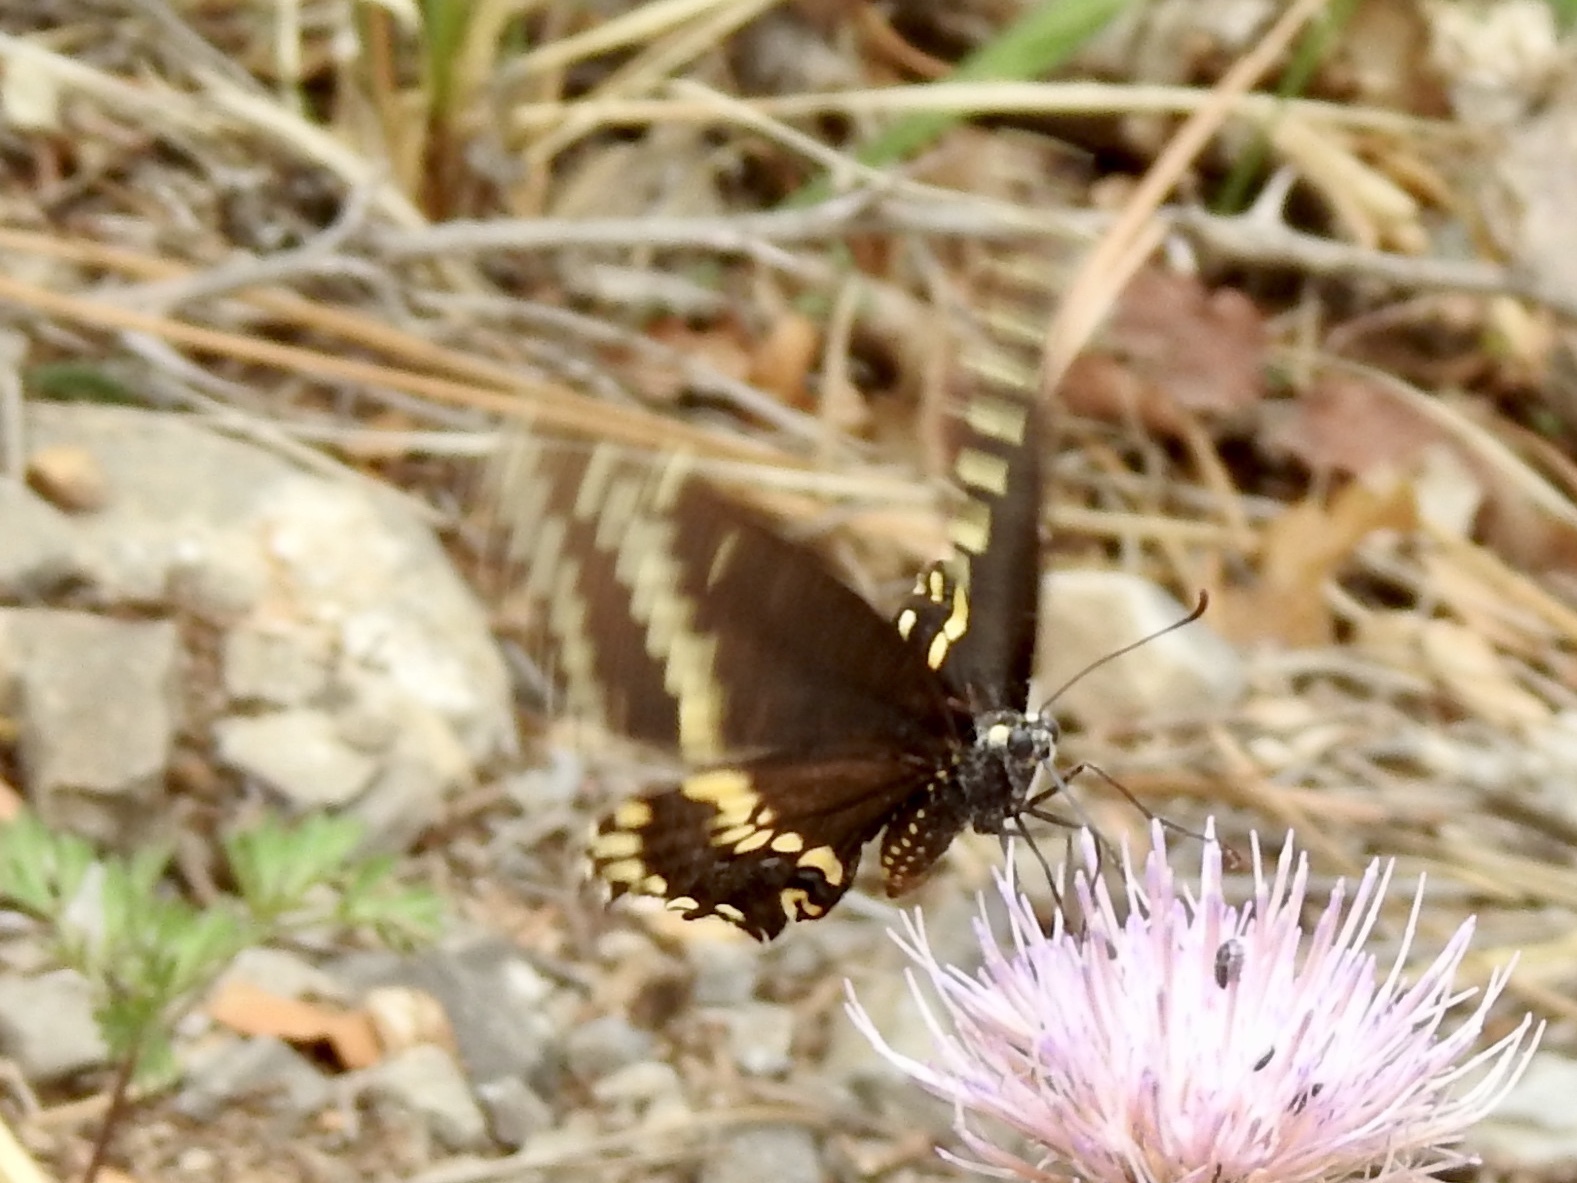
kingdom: Animalia
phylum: Arthropoda
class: Insecta
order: Lepidoptera
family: Papilionidae
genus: Papilio
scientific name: Papilio polyxenes
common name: Black swallowtail
